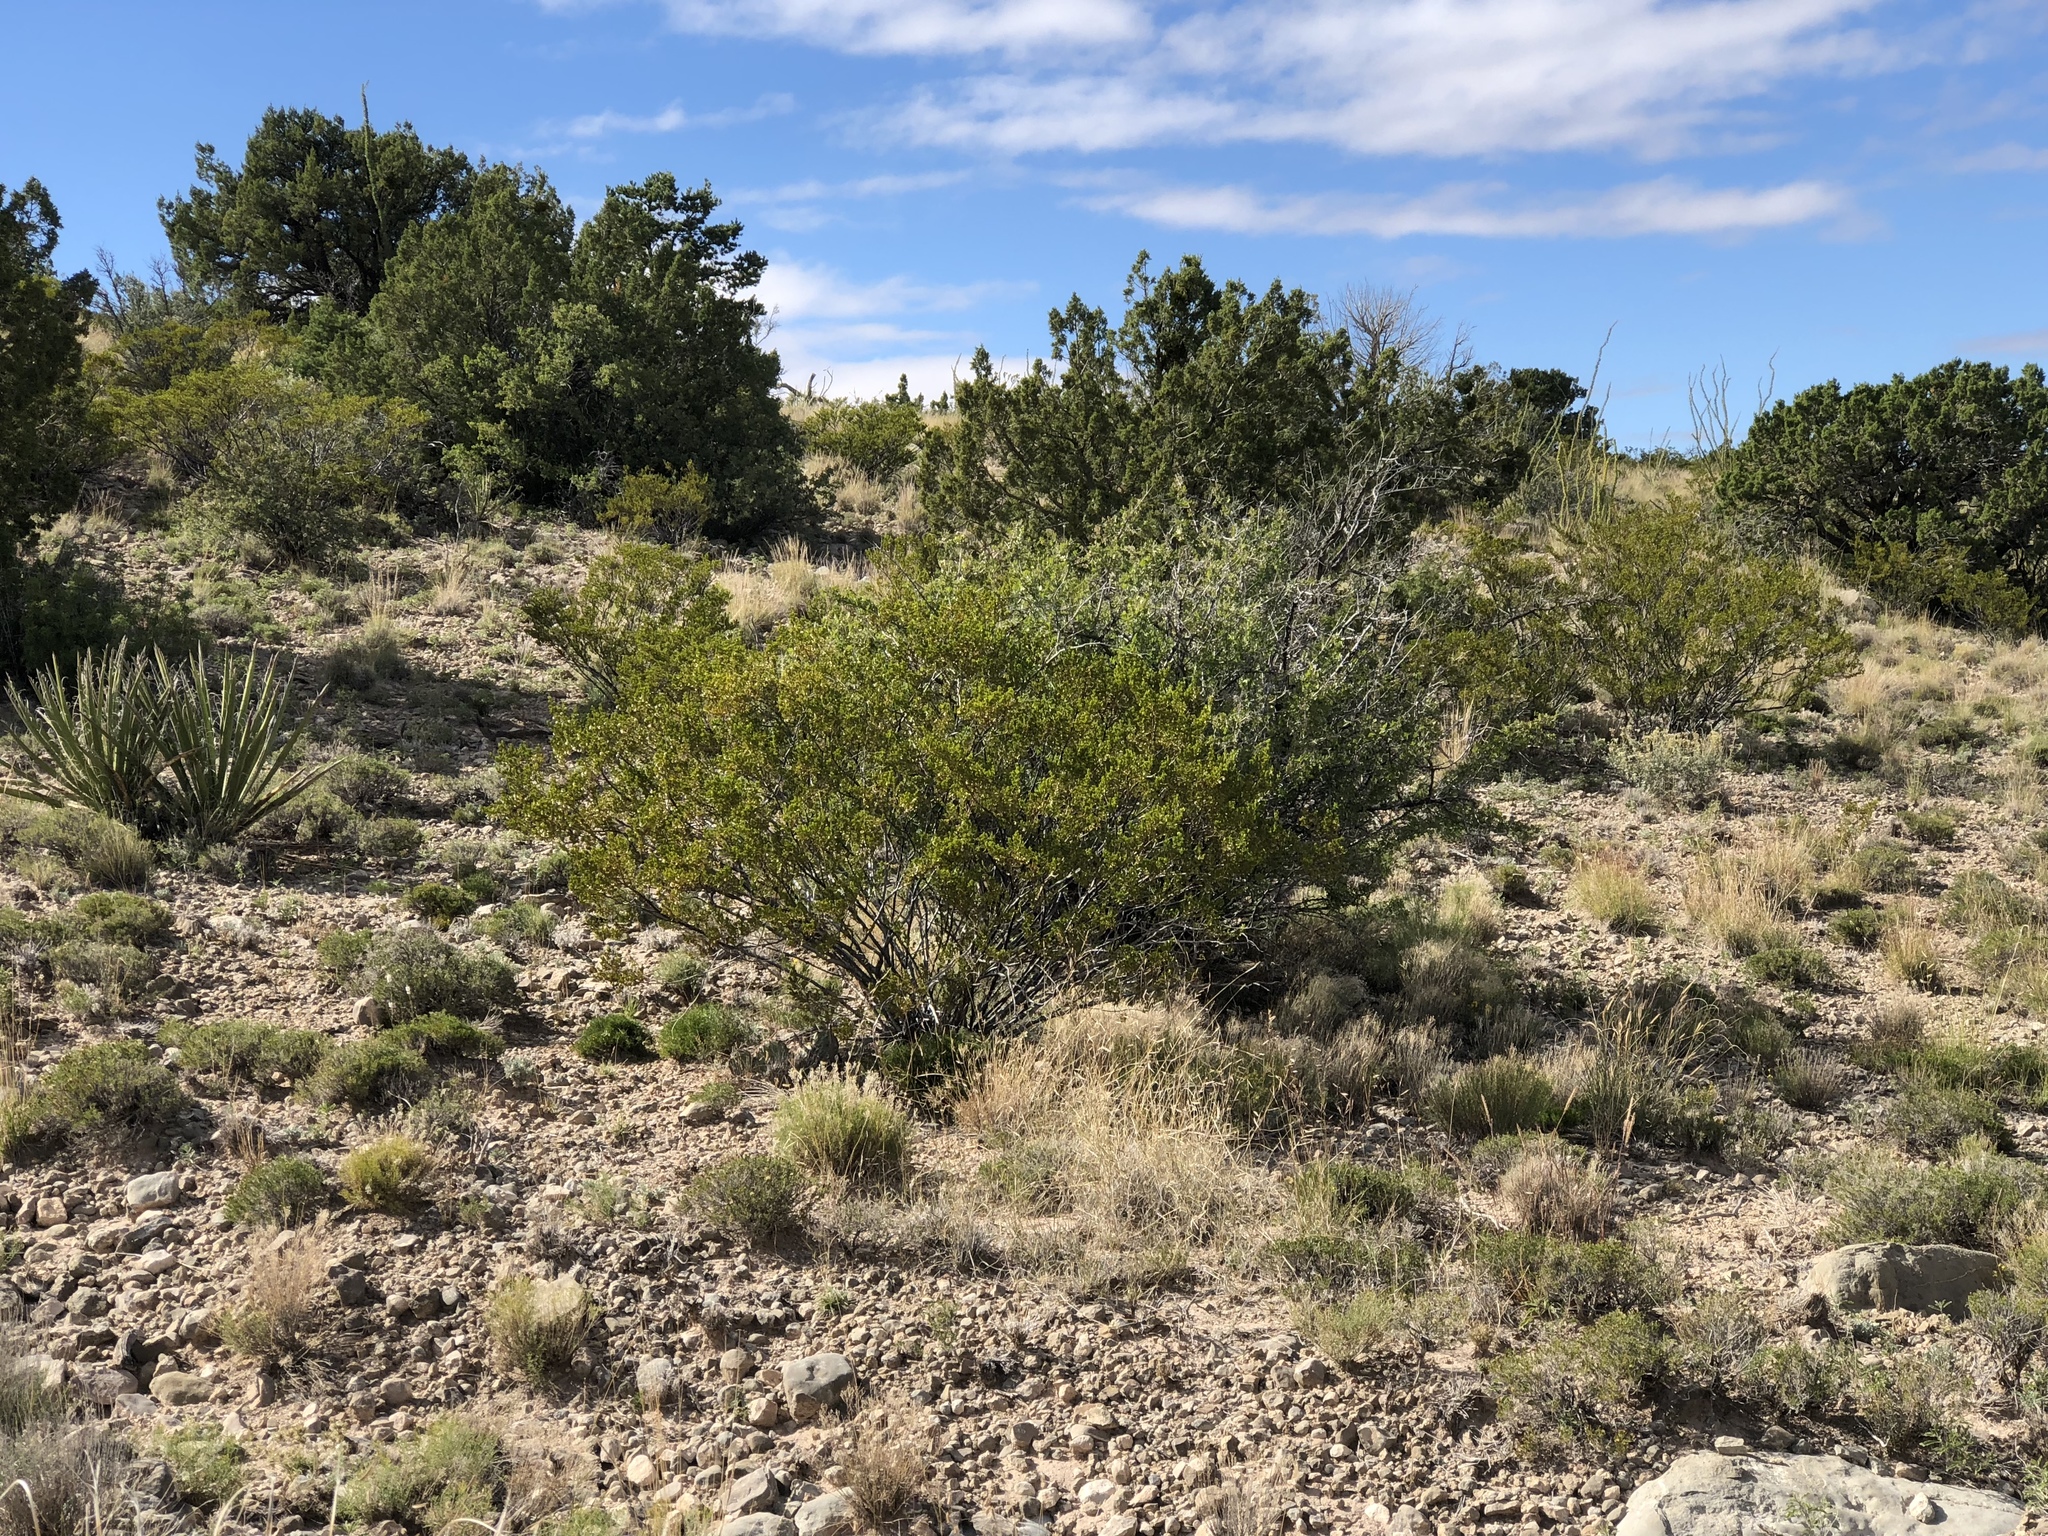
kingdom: Plantae
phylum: Tracheophyta
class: Magnoliopsida
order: Zygophyllales
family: Zygophyllaceae
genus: Larrea
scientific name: Larrea tridentata
